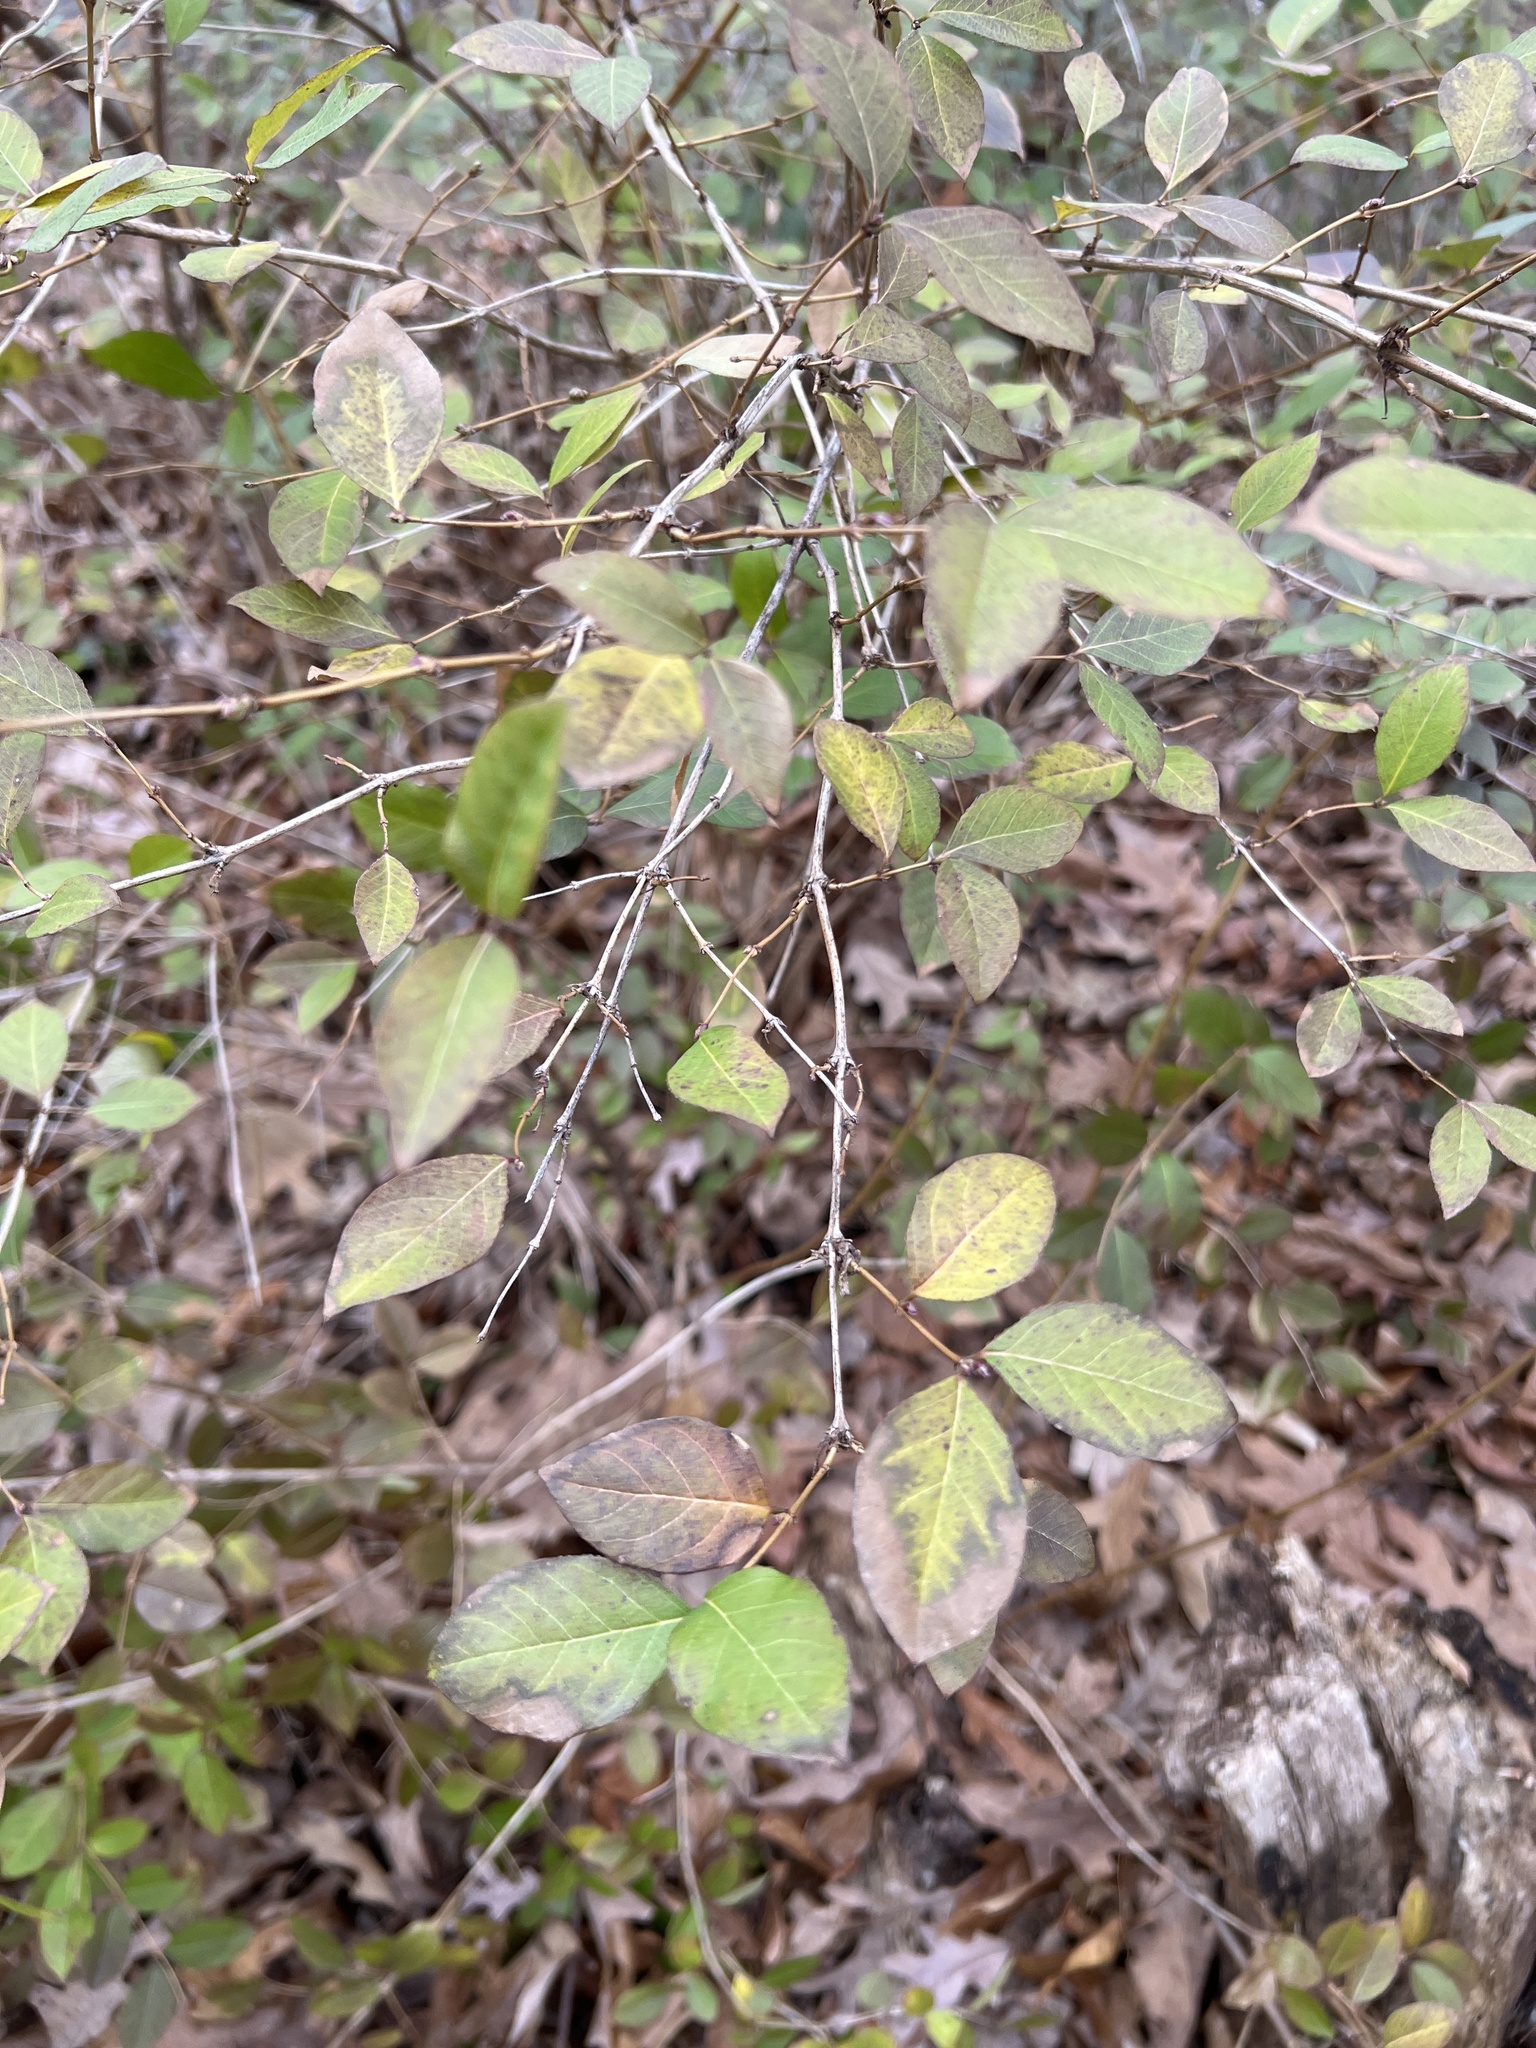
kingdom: Plantae
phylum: Tracheophyta
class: Magnoliopsida
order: Dipsacales
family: Caprifoliaceae
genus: Lonicera
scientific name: Lonicera fragrantissima
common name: Fragrant honeysuckle
